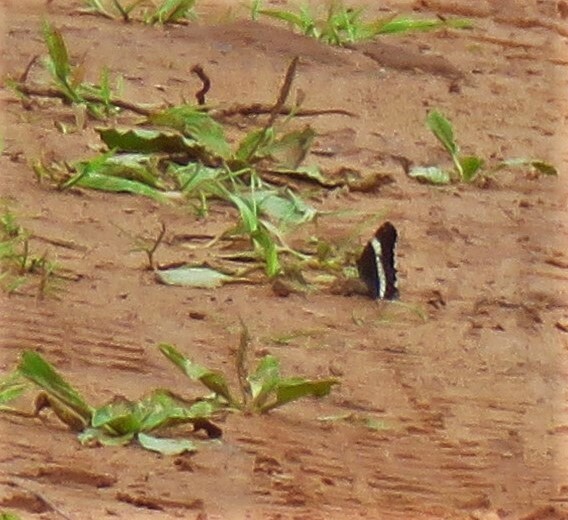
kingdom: Animalia
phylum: Arthropoda
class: Insecta
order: Lepidoptera
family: Nymphalidae
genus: Limenitis
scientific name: Limenitis arthemis
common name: Red-spotted admiral
